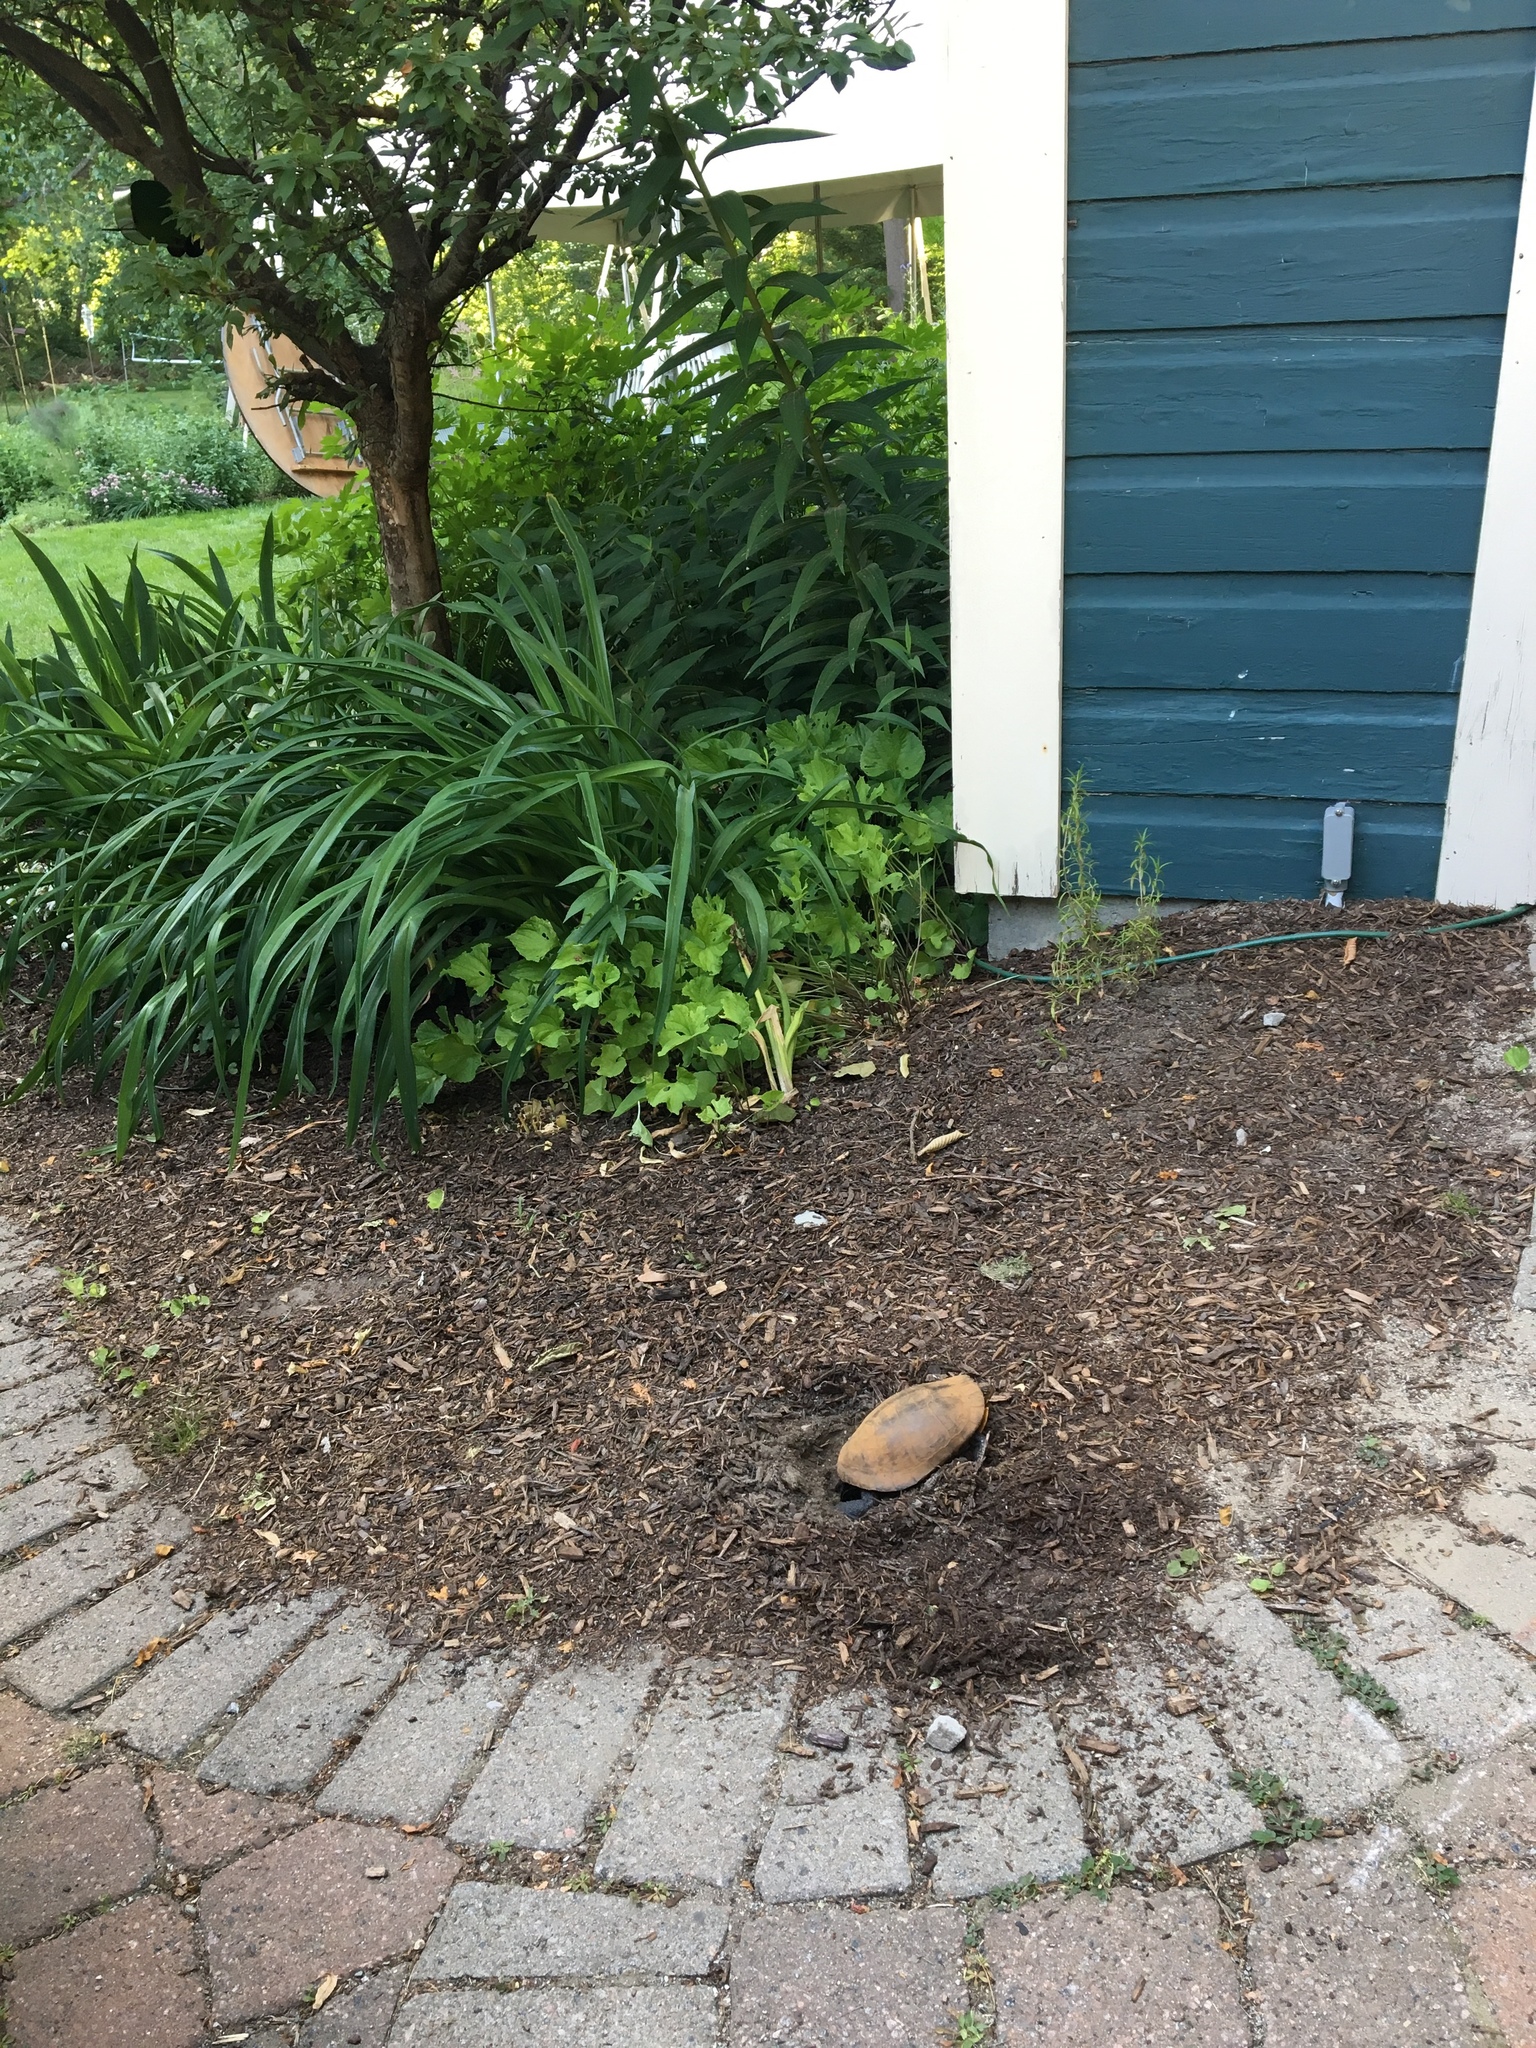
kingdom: Animalia
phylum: Chordata
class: Testudines
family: Emydidae
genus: Chrysemys
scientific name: Chrysemys picta
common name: Painted turtle
